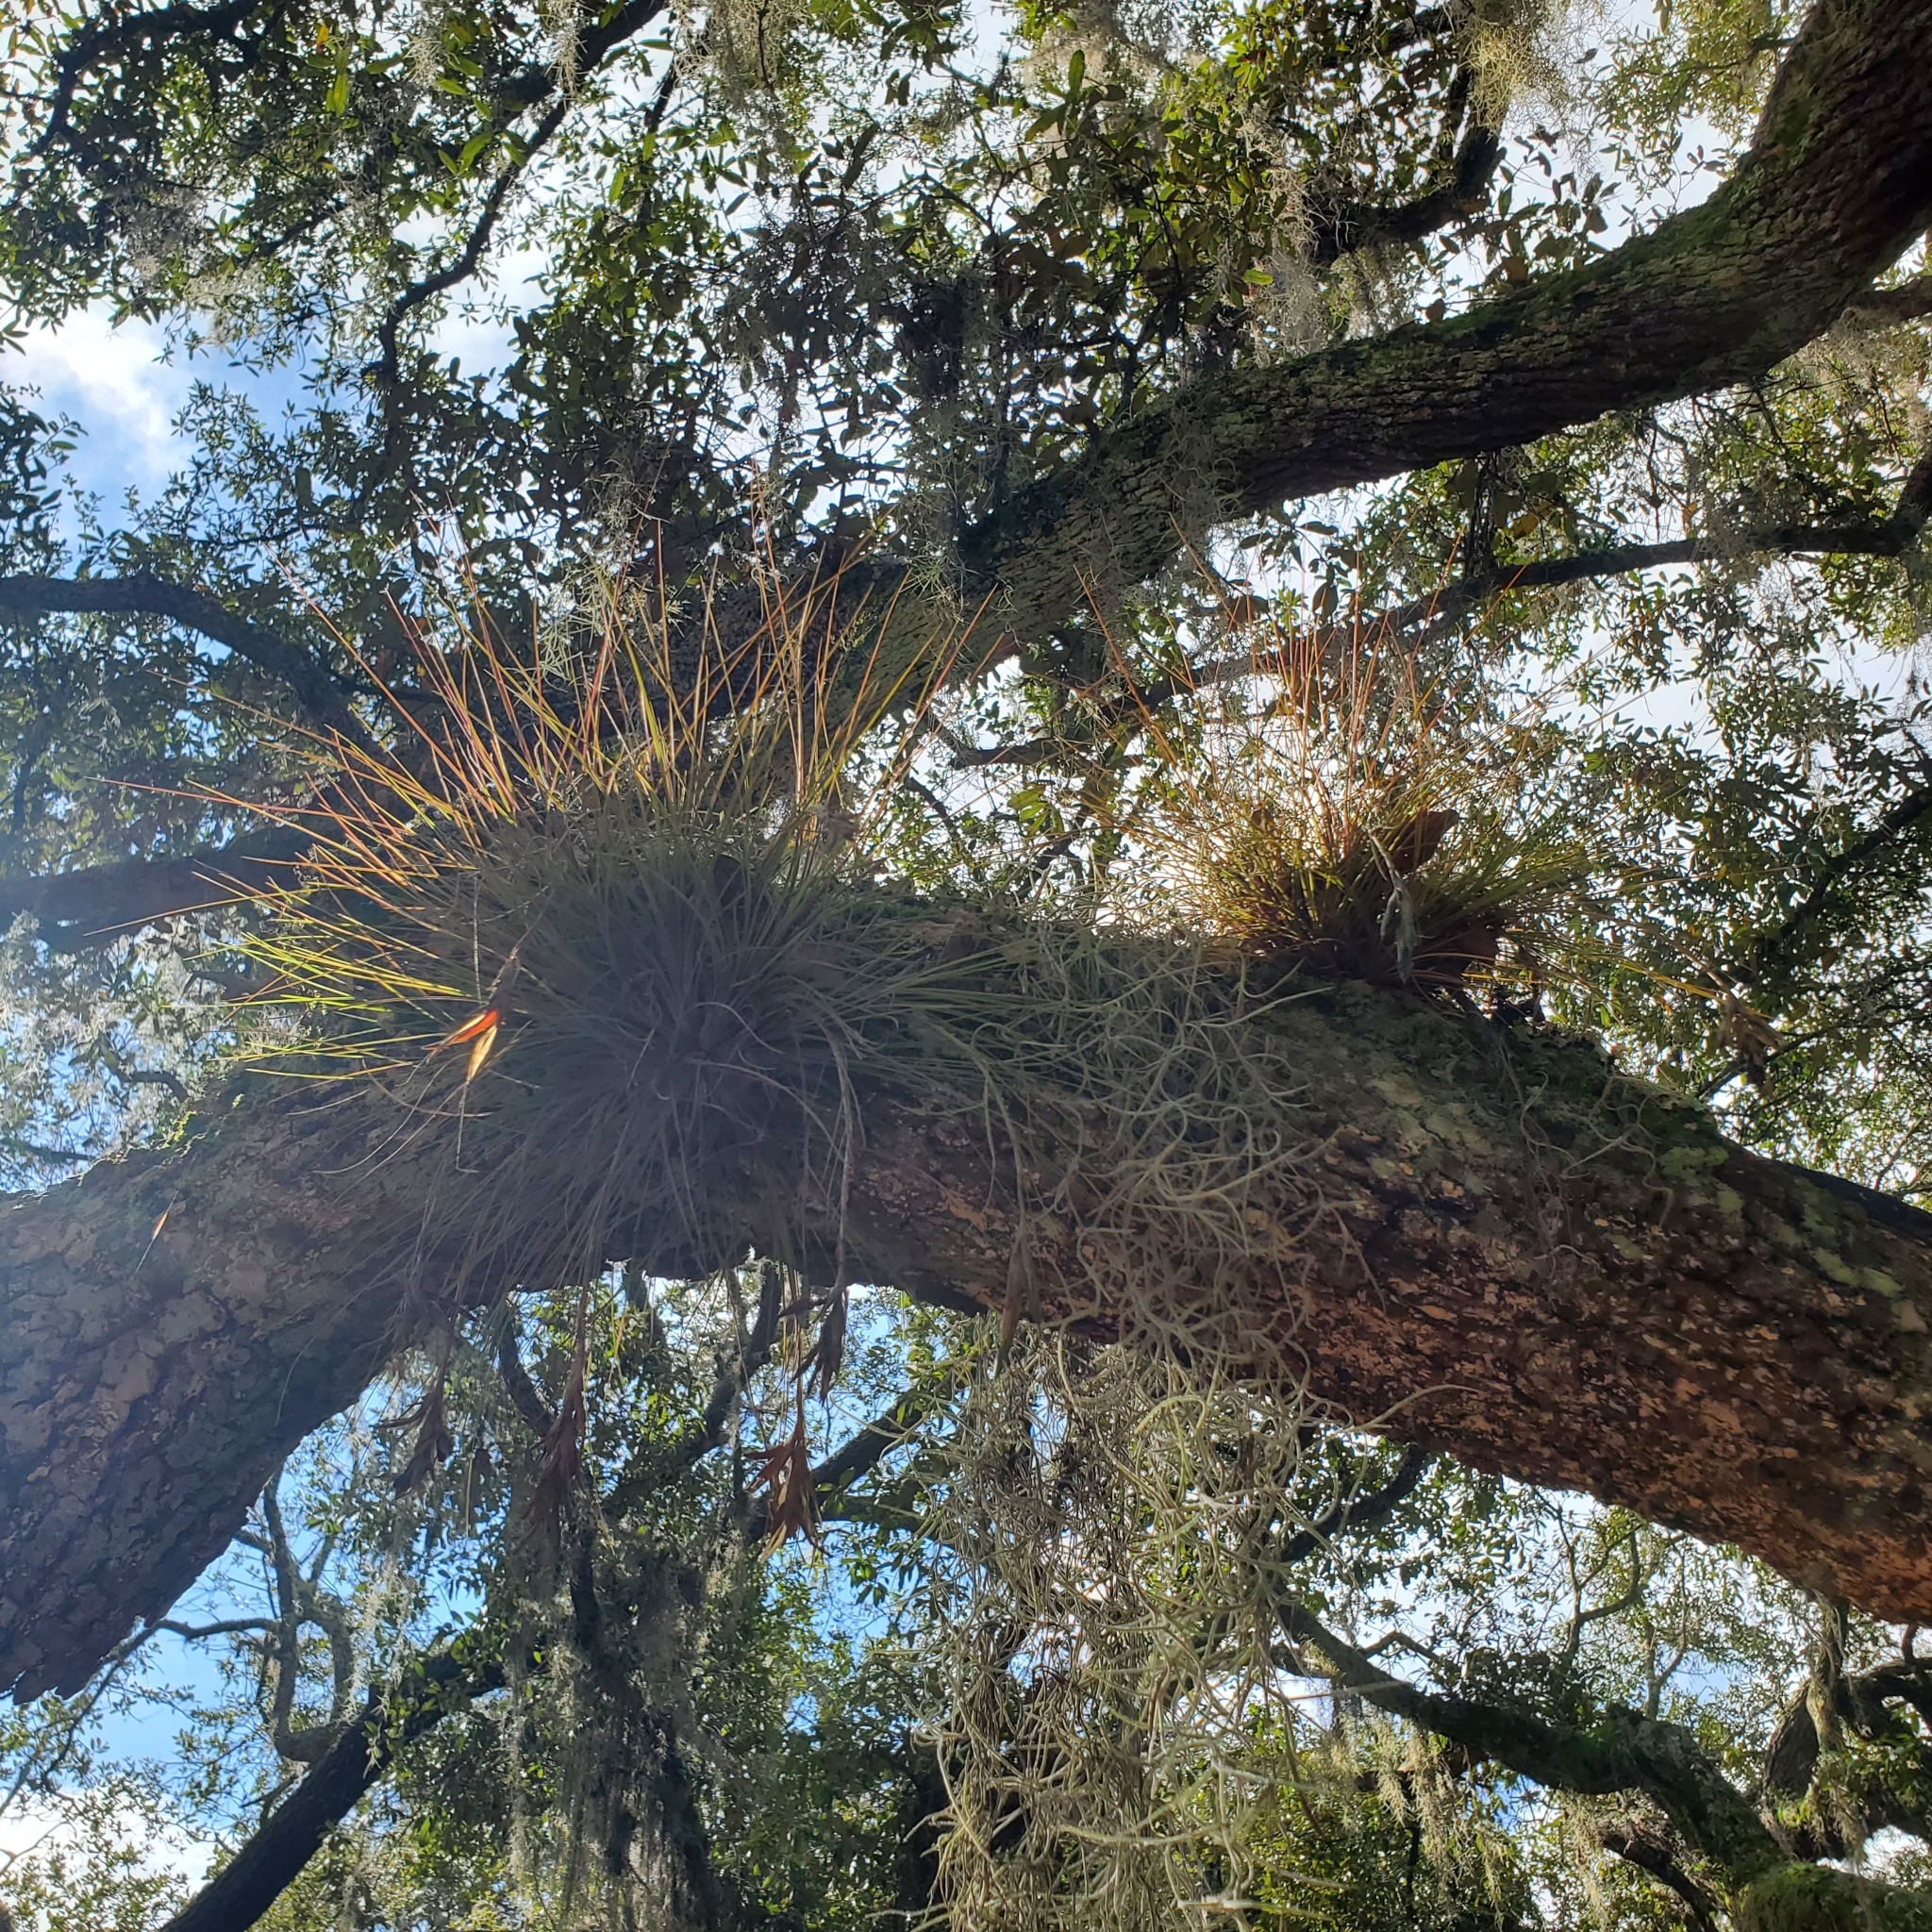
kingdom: Plantae
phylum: Tracheophyta
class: Liliopsida
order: Poales
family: Bromeliaceae
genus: Tillandsia
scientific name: Tillandsia setacea
